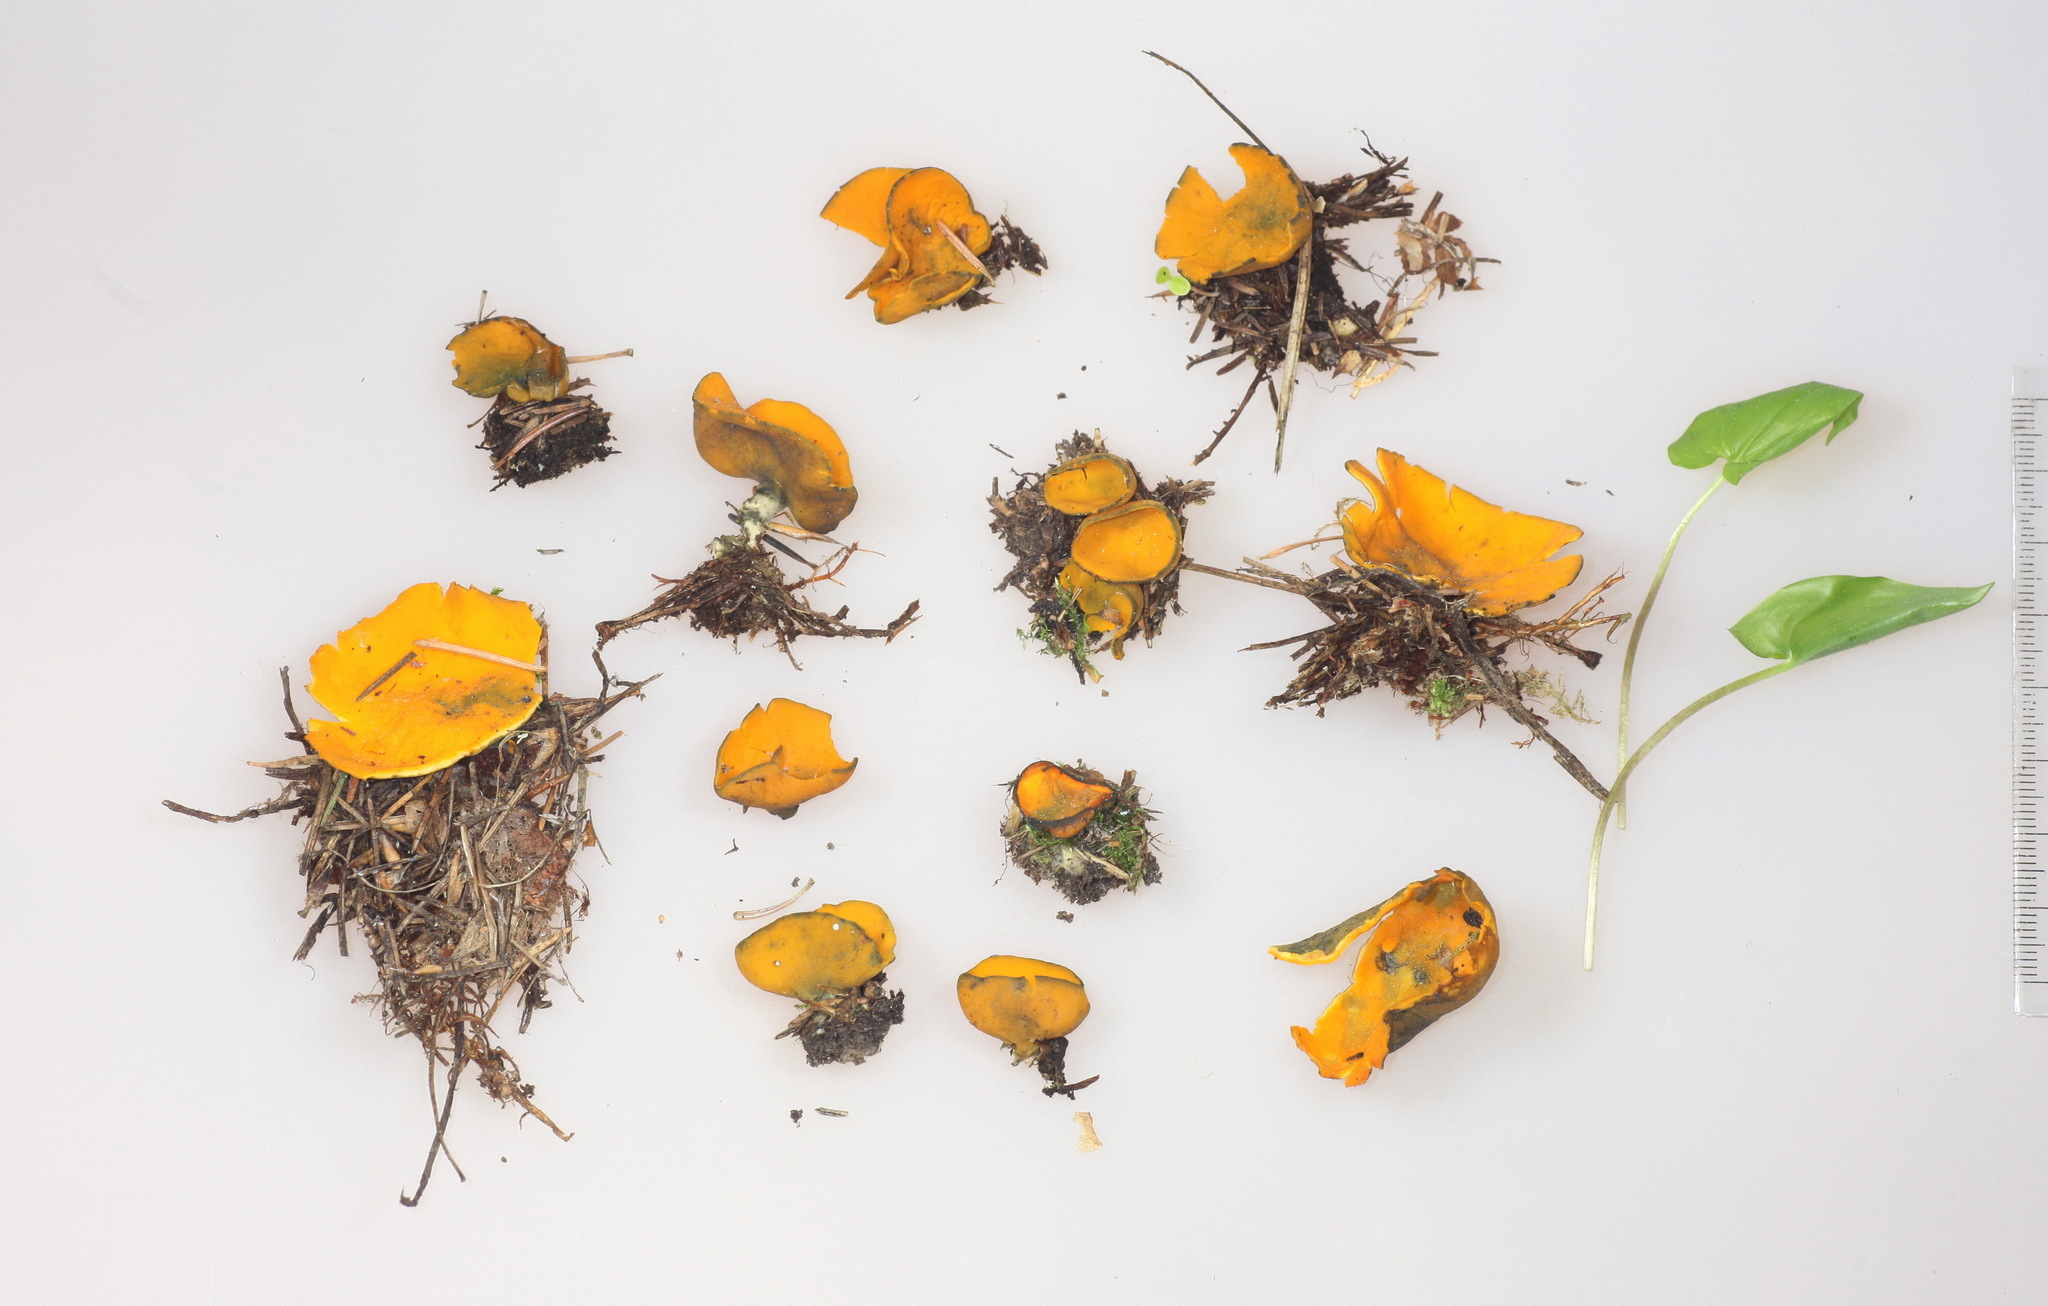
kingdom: Fungi
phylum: Ascomycota
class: Pezizomycetes
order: Pezizales
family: Caloscyphaceae
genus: Caloscypha
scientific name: Caloscypha fulgens
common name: Golden cup
